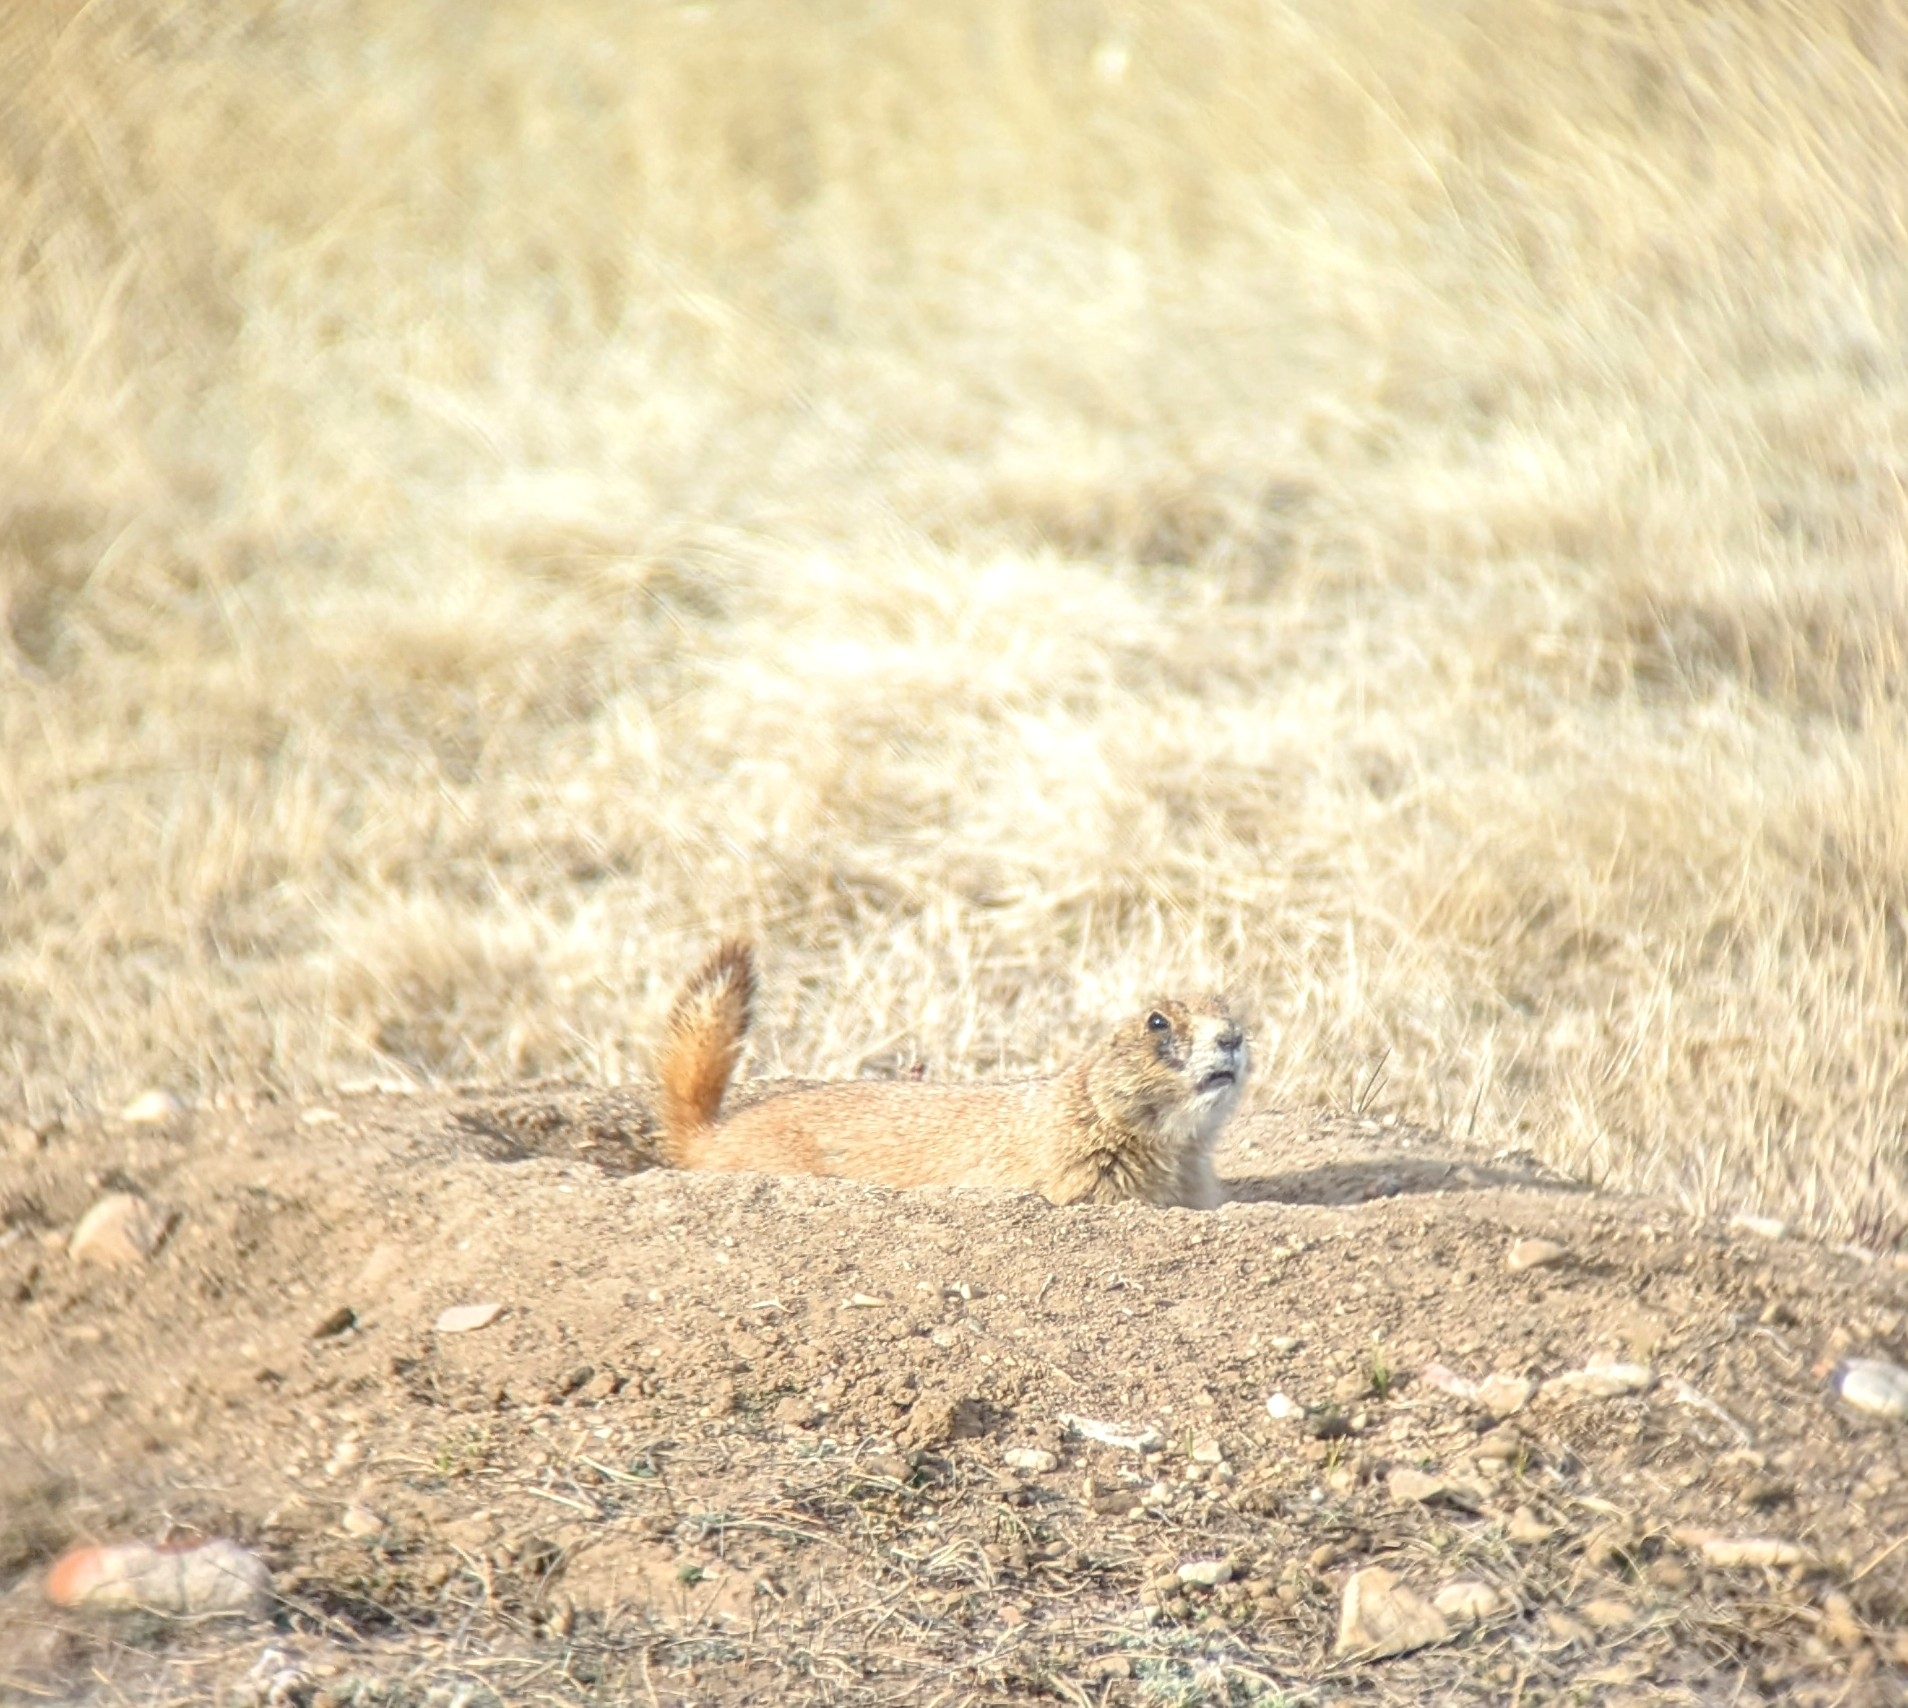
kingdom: Animalia
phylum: Chordata
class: Mammalia
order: Rodentia
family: Sciuridae
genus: Cynomys
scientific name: Cynomys ludovicianus
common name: Black-tailed prairie dog
